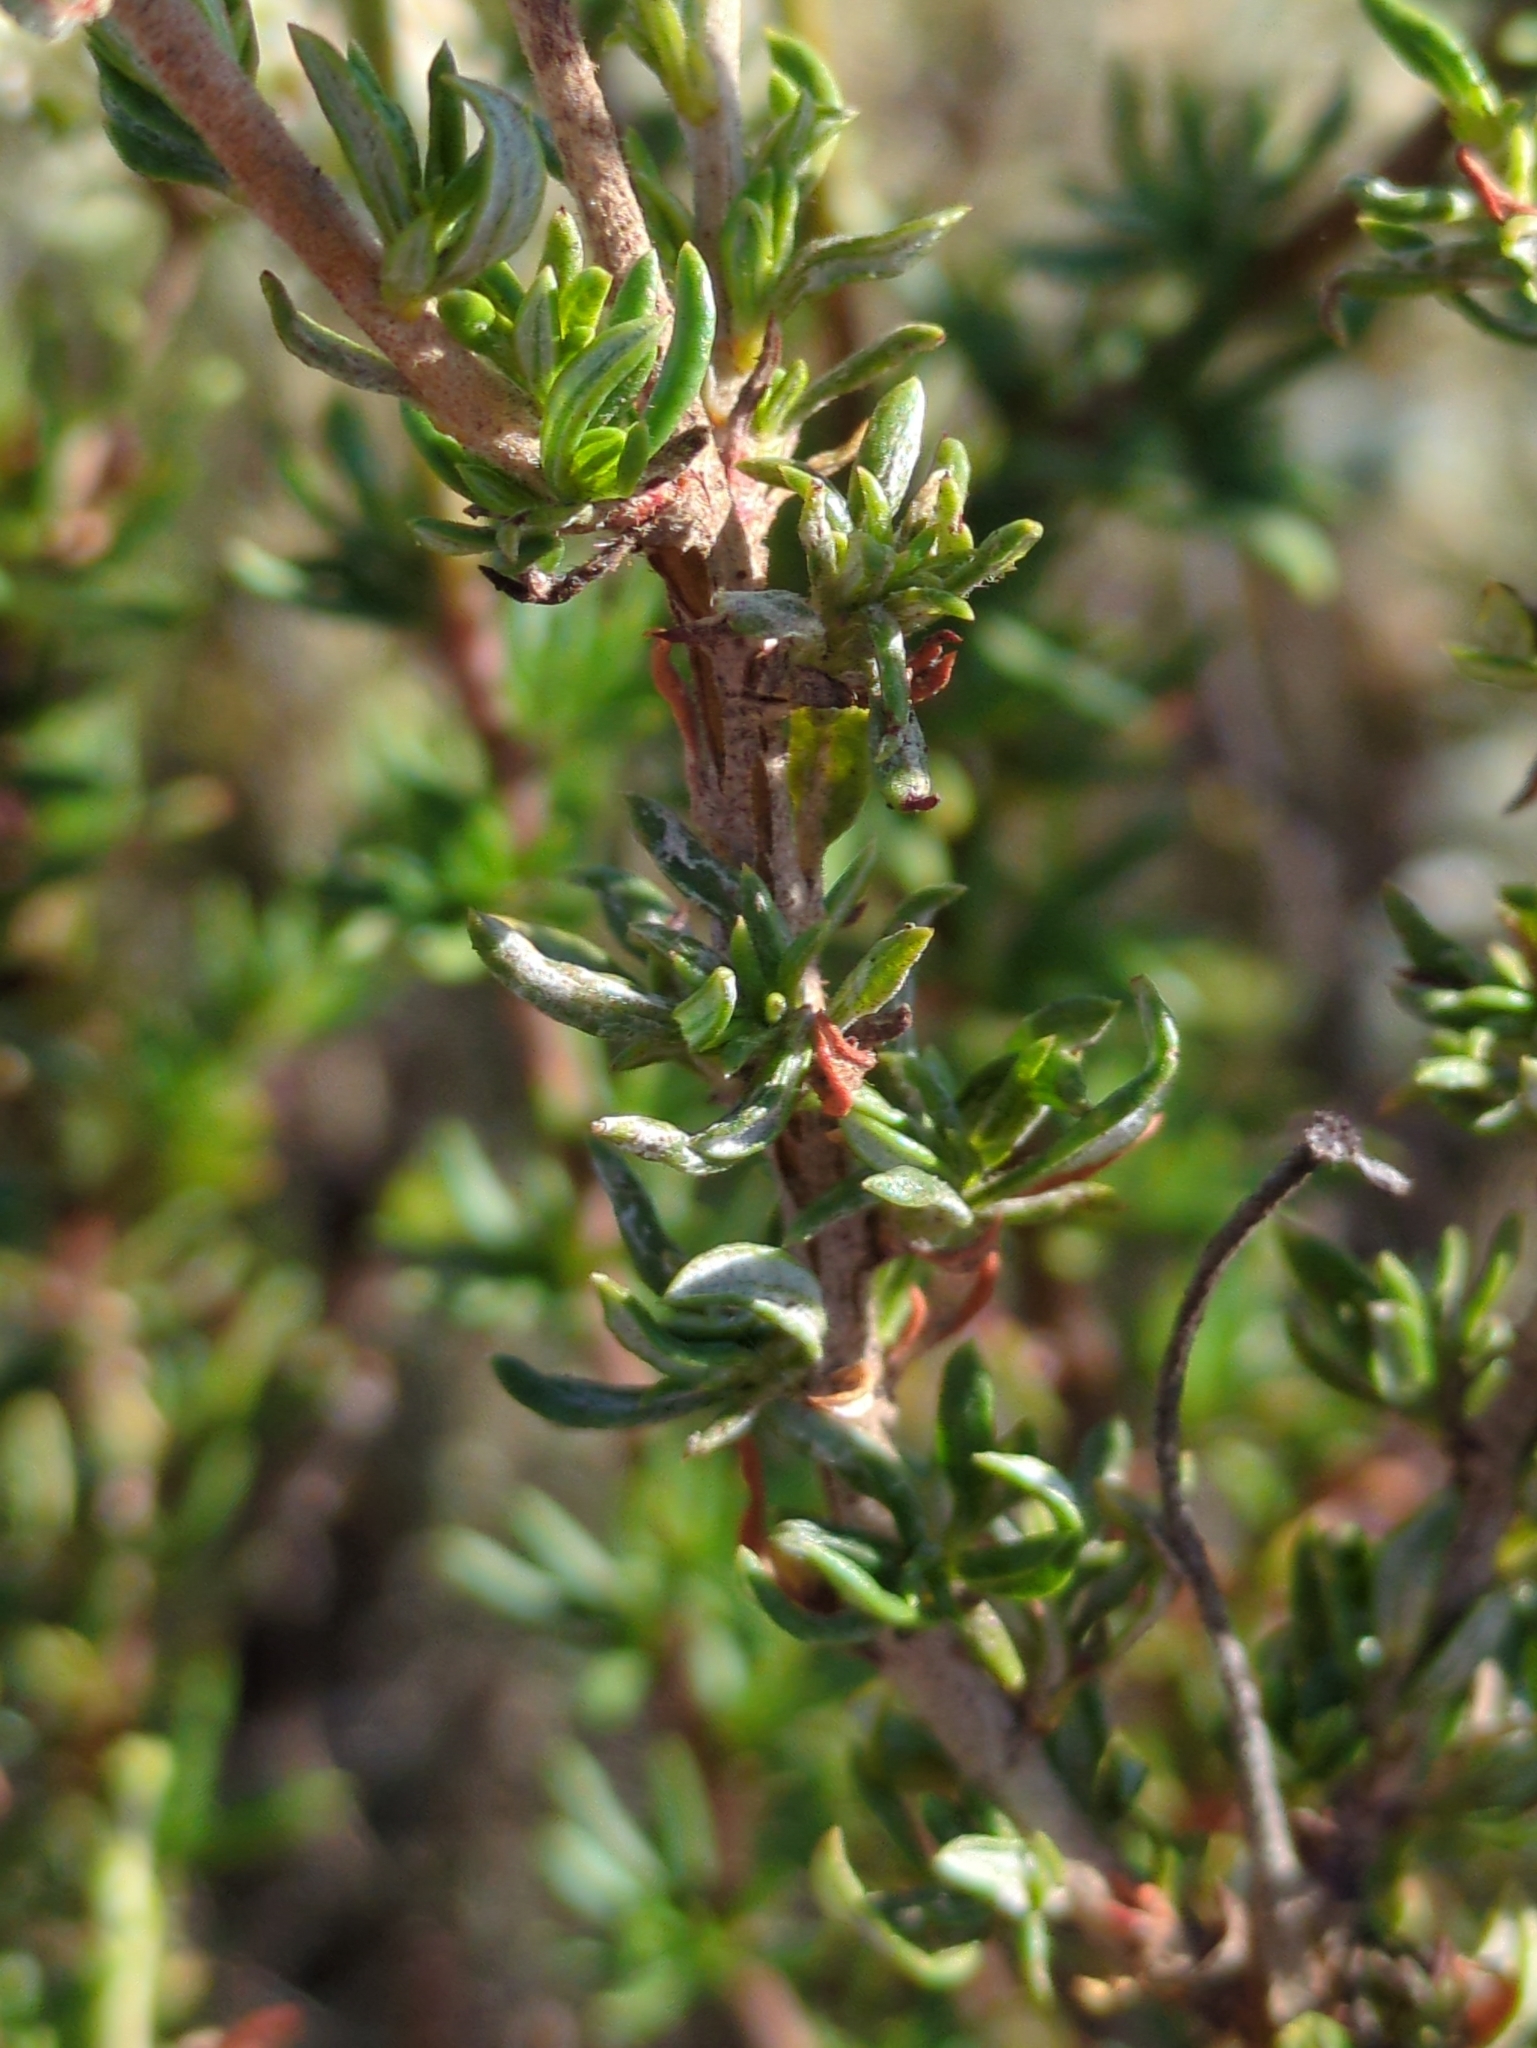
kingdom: Plantae
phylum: Tracheophyta
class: Magnoliopsida
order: Caryophyllales
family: Polygonaceae
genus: Eriogonum
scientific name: Eriogonum fasciculatum
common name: California wild buckwheat
